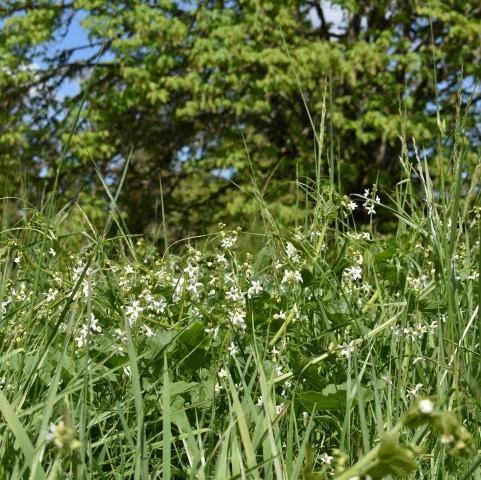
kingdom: Plantae
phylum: Tracheophyta
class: Magnoliopsida
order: Cucurbitales
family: Cucurbitaceae
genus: Marah
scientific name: Marah oregana
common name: Coastal manroot
